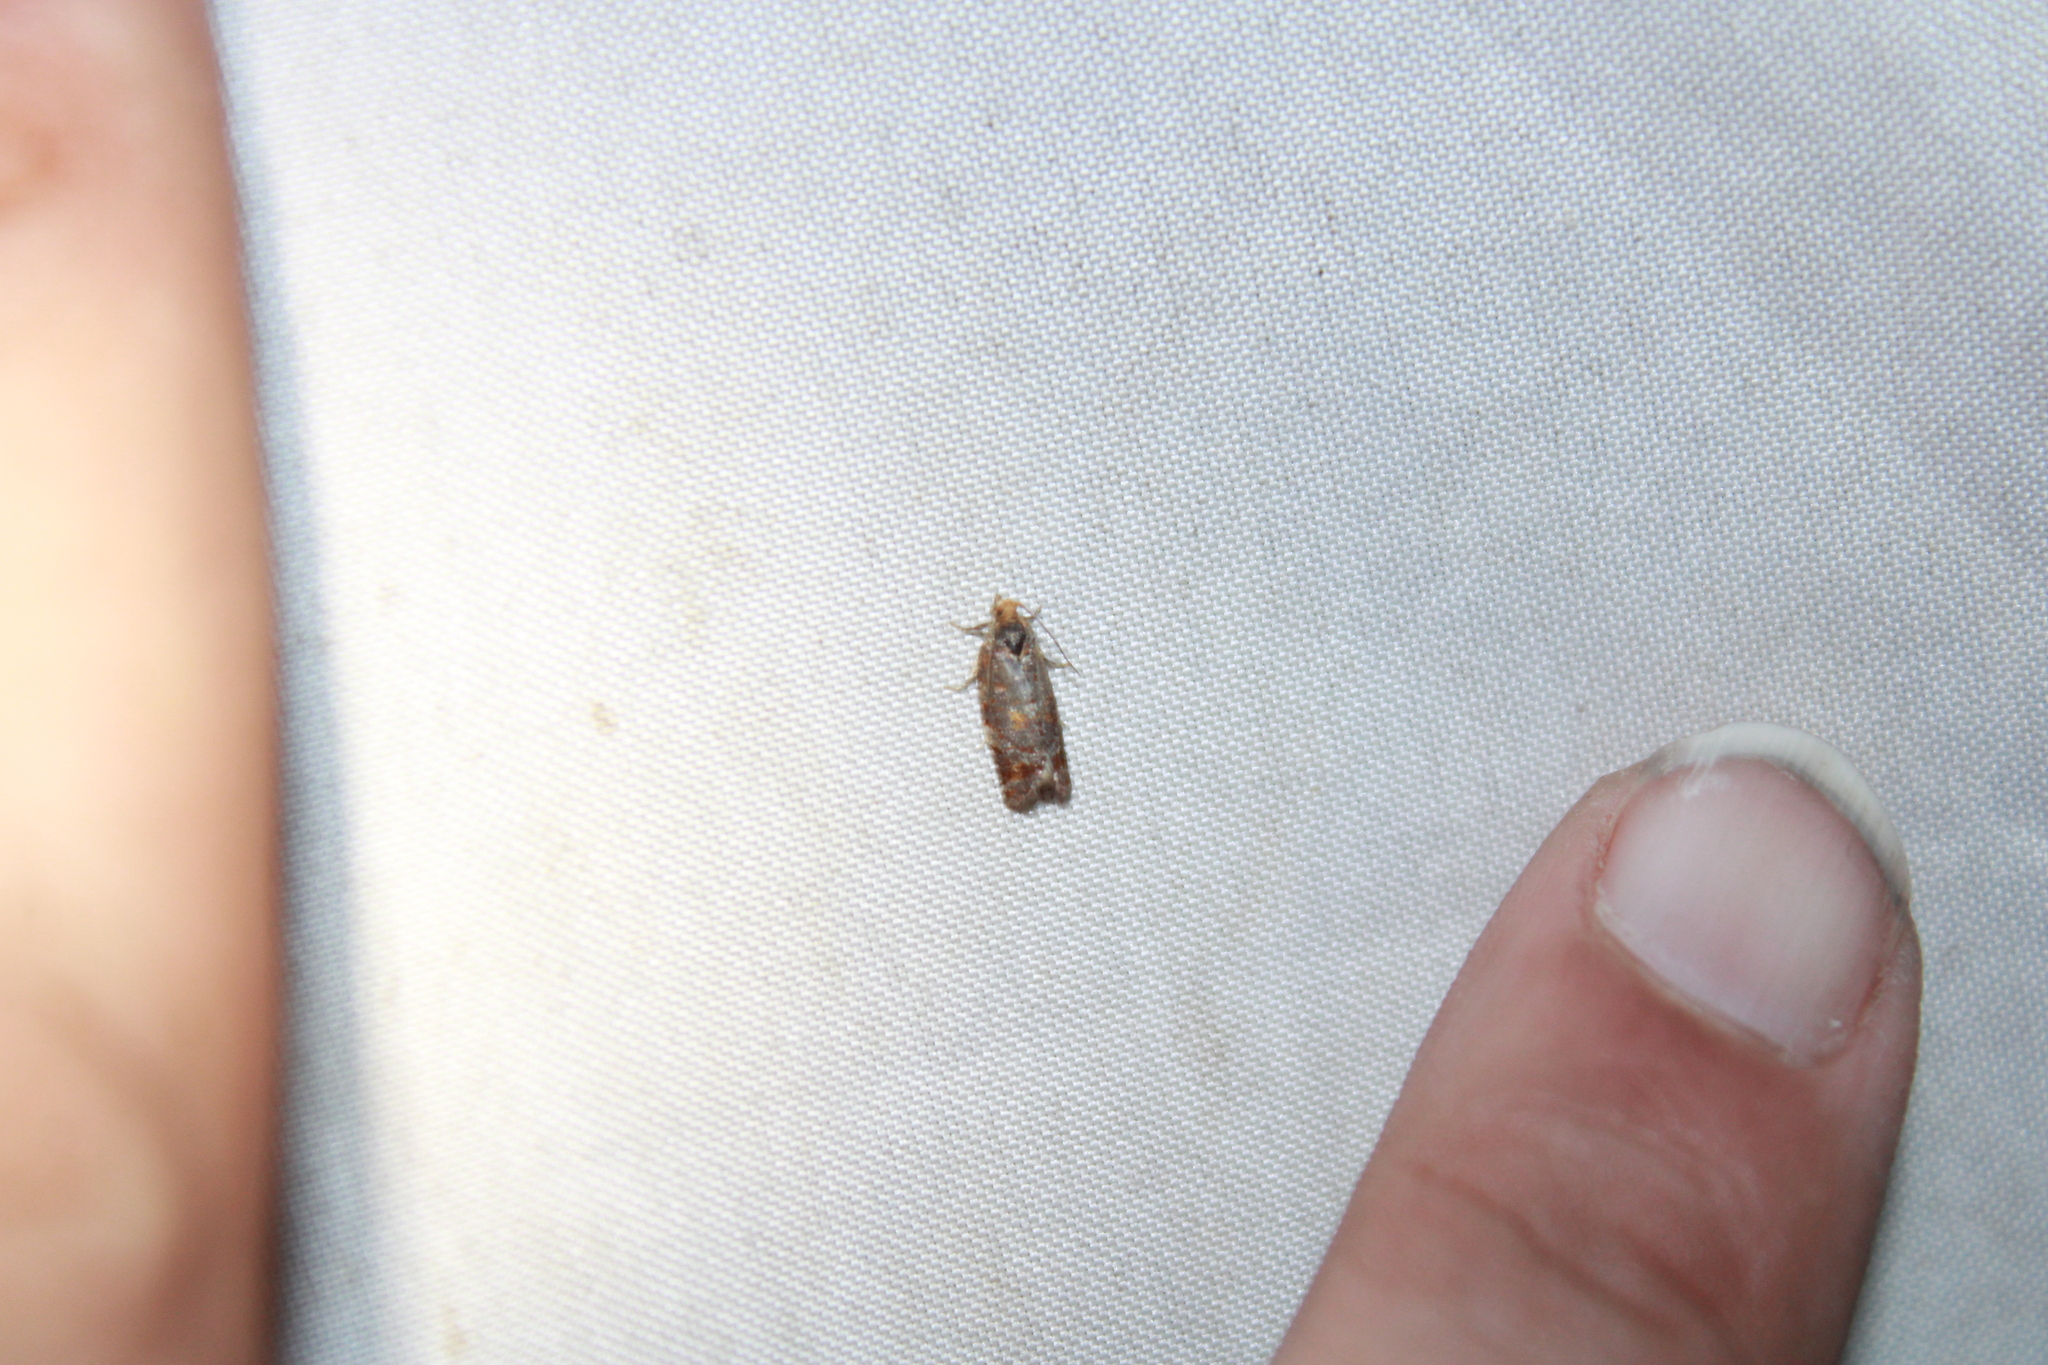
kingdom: Animalia
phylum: Arthropoda
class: Insecta
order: Lepidoptera
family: Tortricidae
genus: Argyrotaenia
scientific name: Argyrotaenia pinatubana
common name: Pine tube moth
